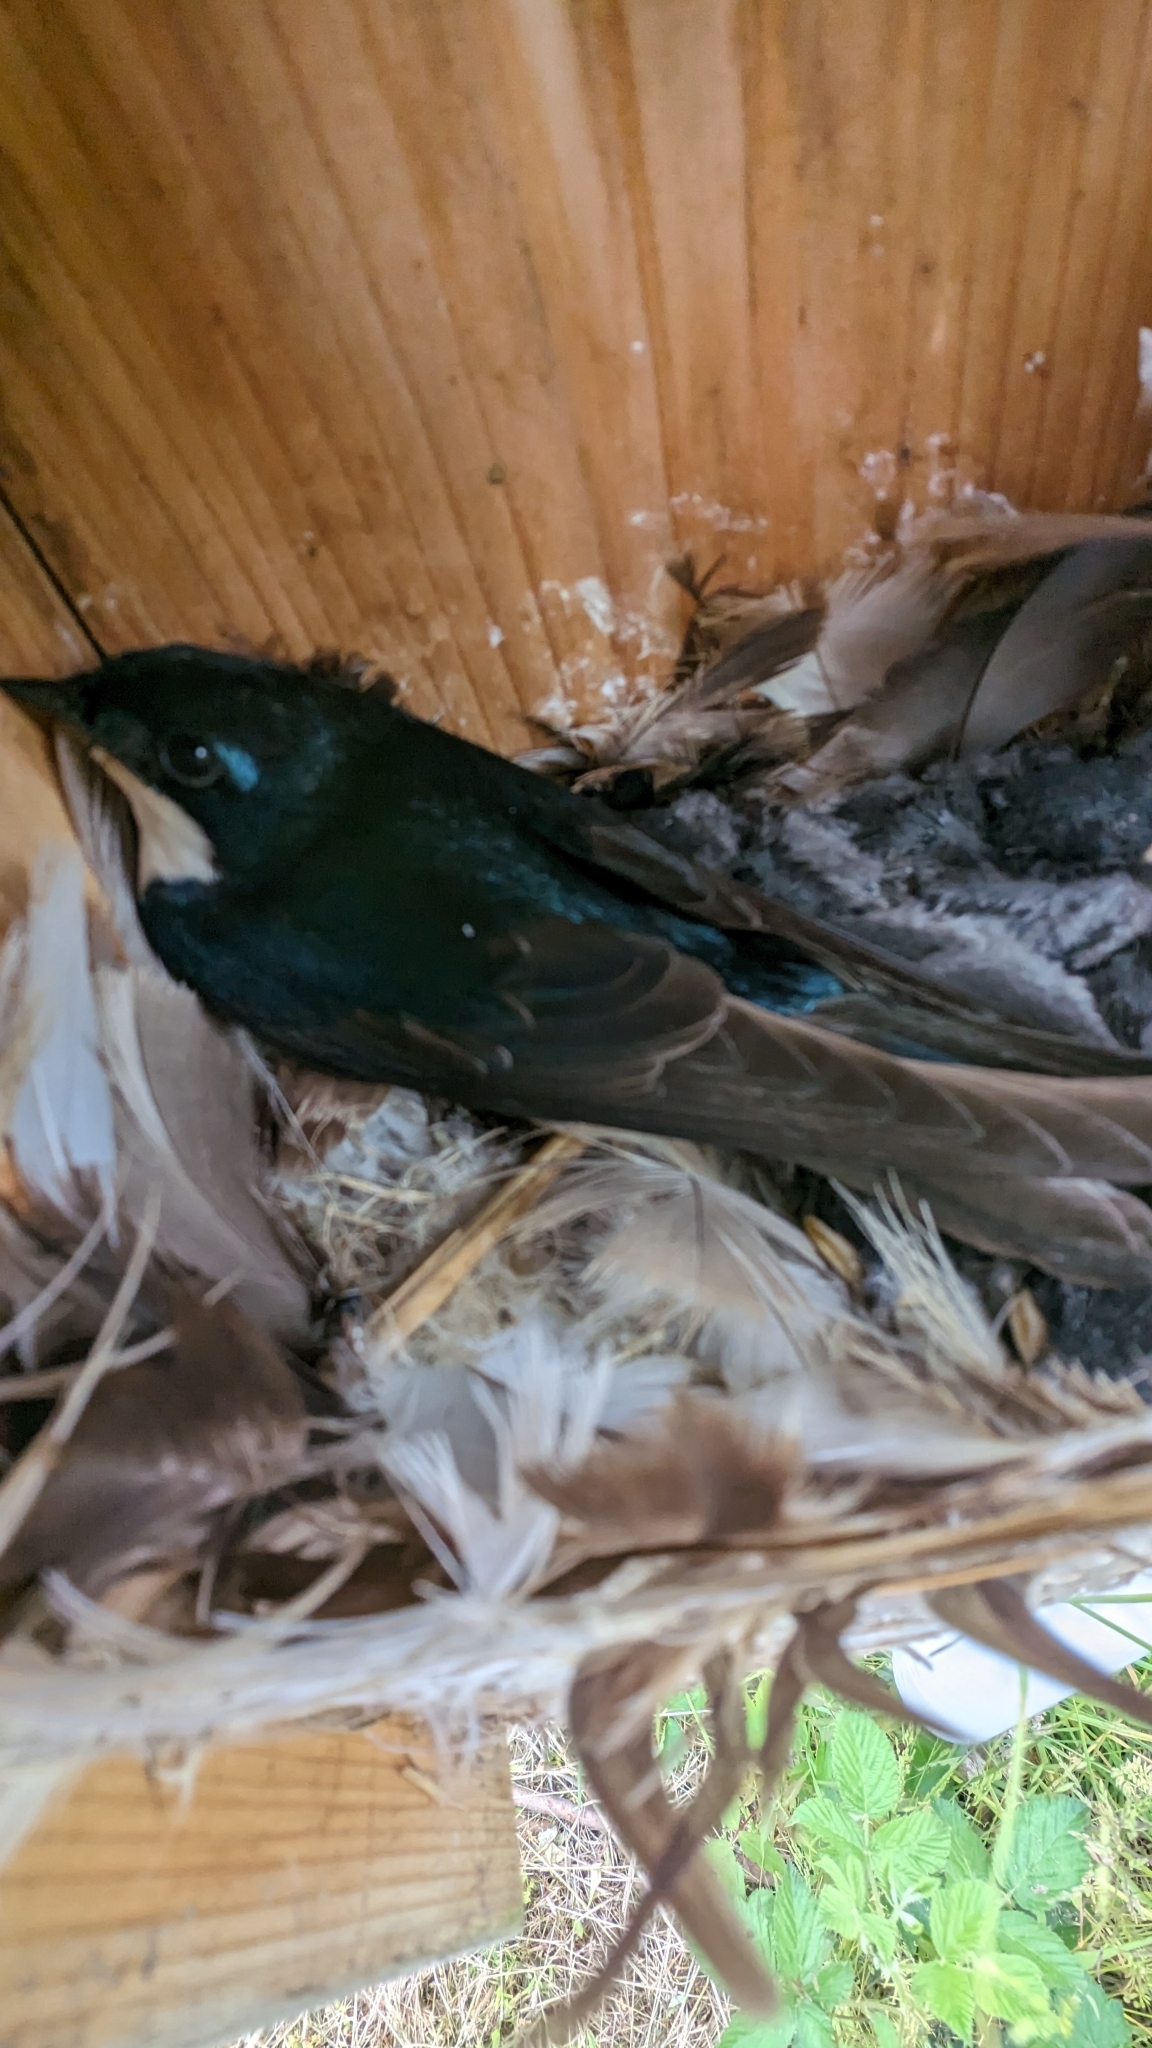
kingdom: Animalia
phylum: Chordata
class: Aves
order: Passeriformes
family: Hirundinidae
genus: Tachycineta
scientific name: Tachycineta bicolor
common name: Tree swallow
